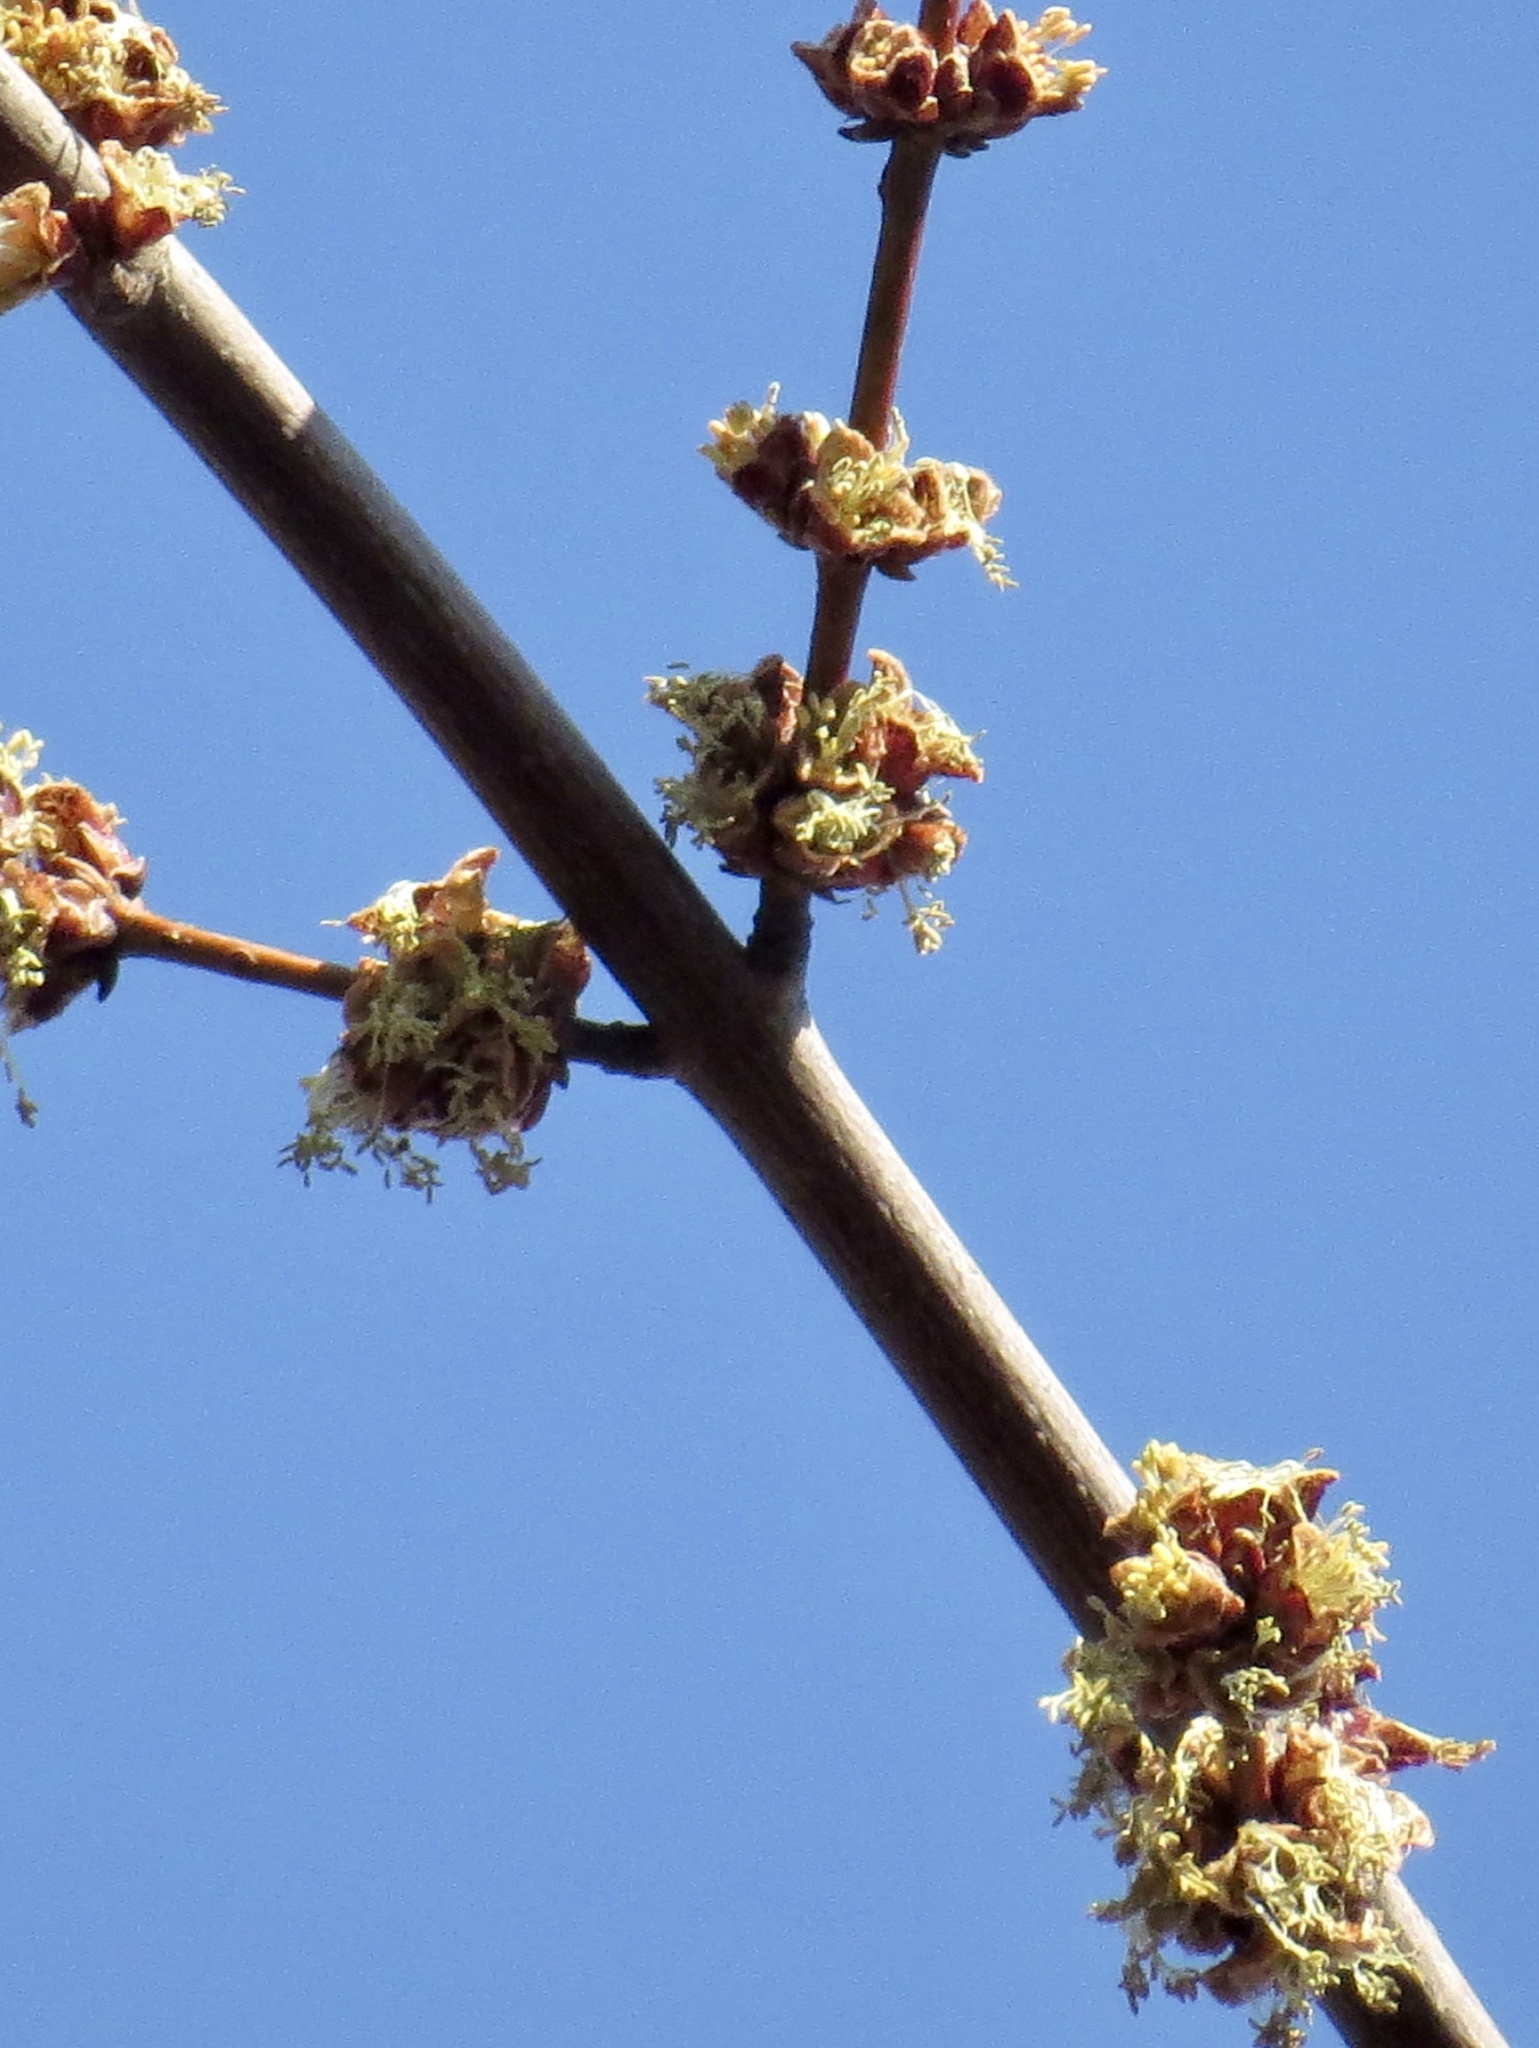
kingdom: Plantae
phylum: Tracheophyta
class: Magnoliopsida
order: Sapindales
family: Sapindaceae
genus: Acer
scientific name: Acer saccharinum
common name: Silver maple
